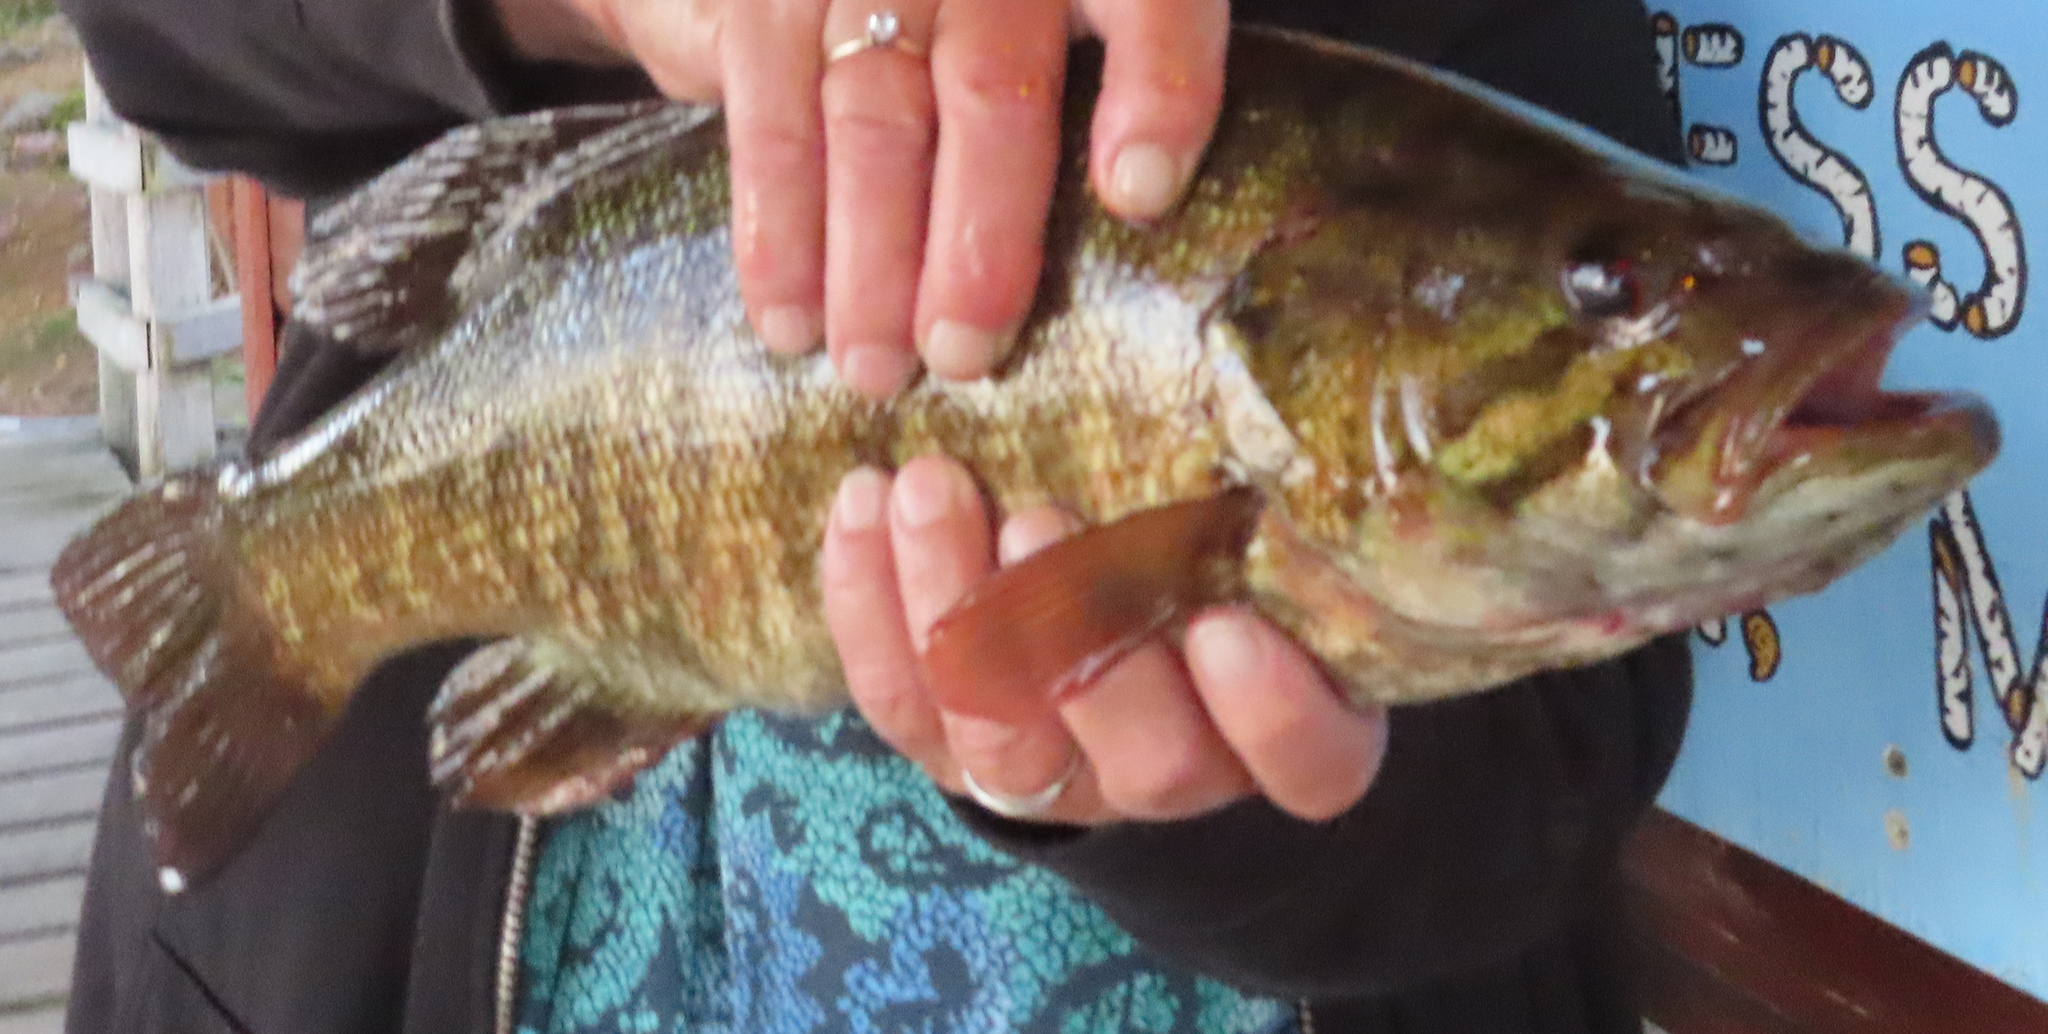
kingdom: Animalia
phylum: Chordata
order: Perciformes
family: Centrarchidae
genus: Micropterus
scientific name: Micropterus dolomieu
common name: Smallmouth bass
